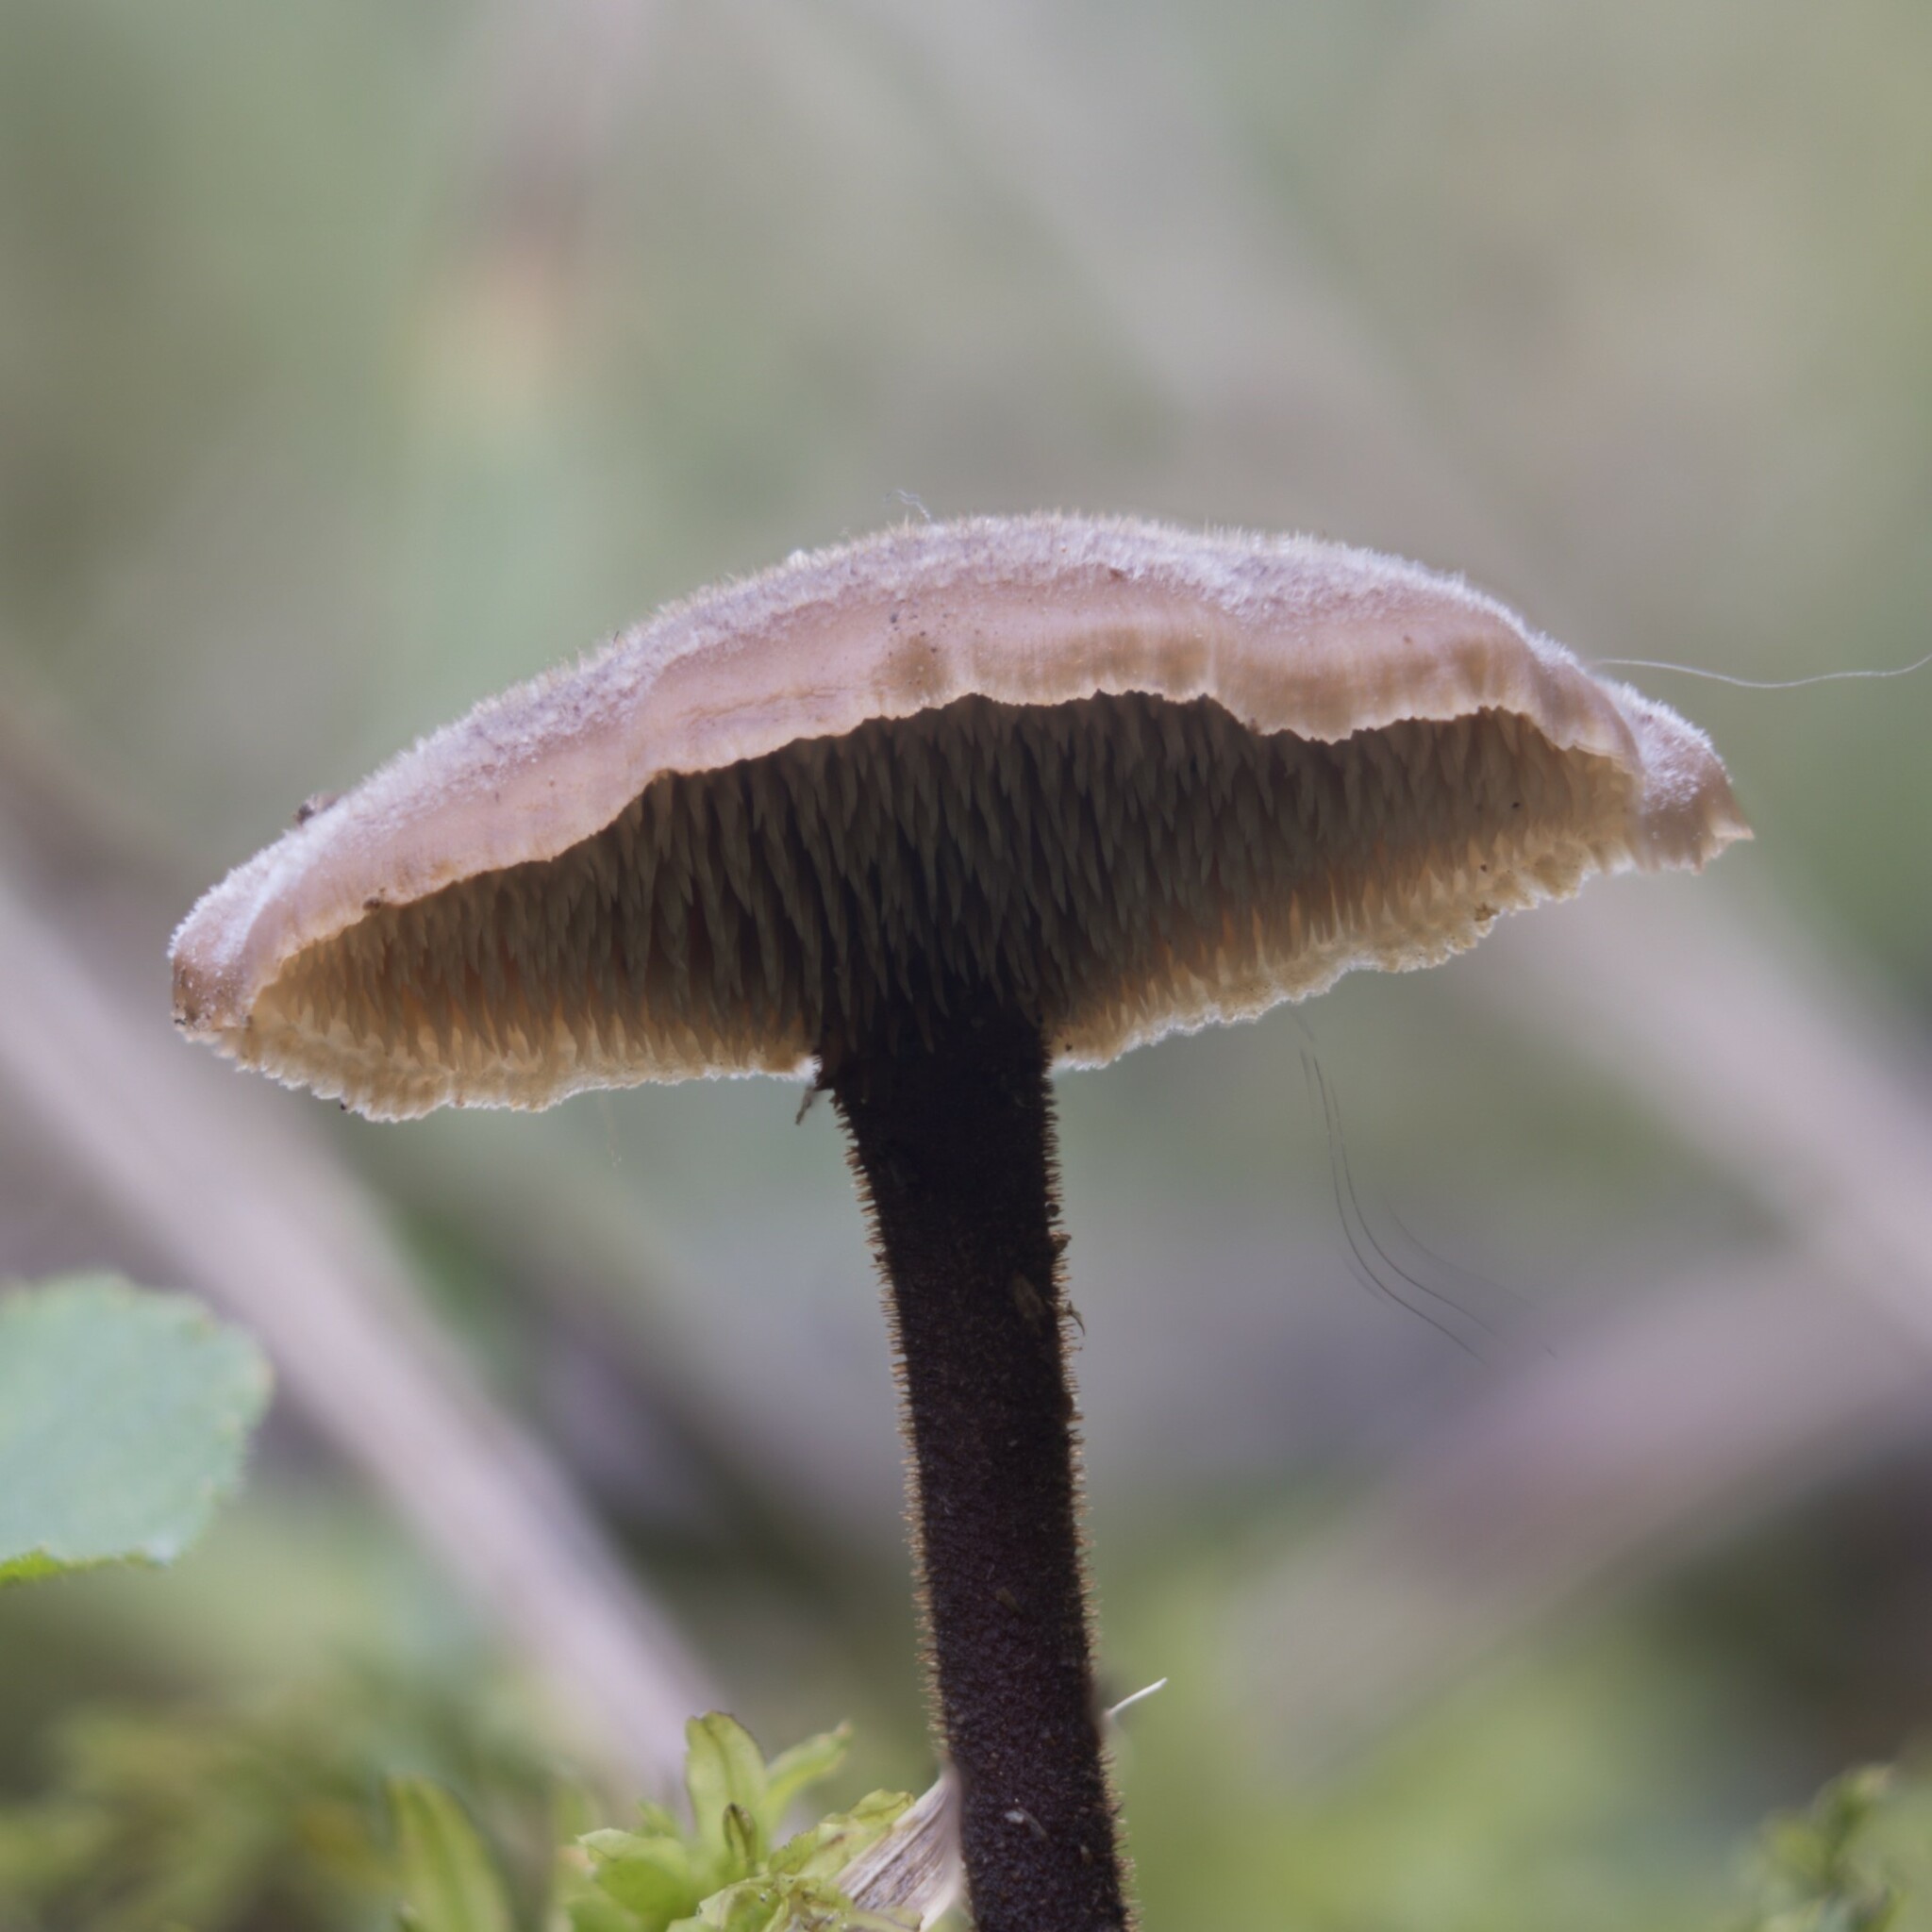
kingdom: Fungi
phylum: Basidiomycota
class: Agaricomycetes
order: Russulales
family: Auriscalpiaceae
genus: Auriscalpium
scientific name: Auriscalpium vulgare
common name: Earpick fungus
